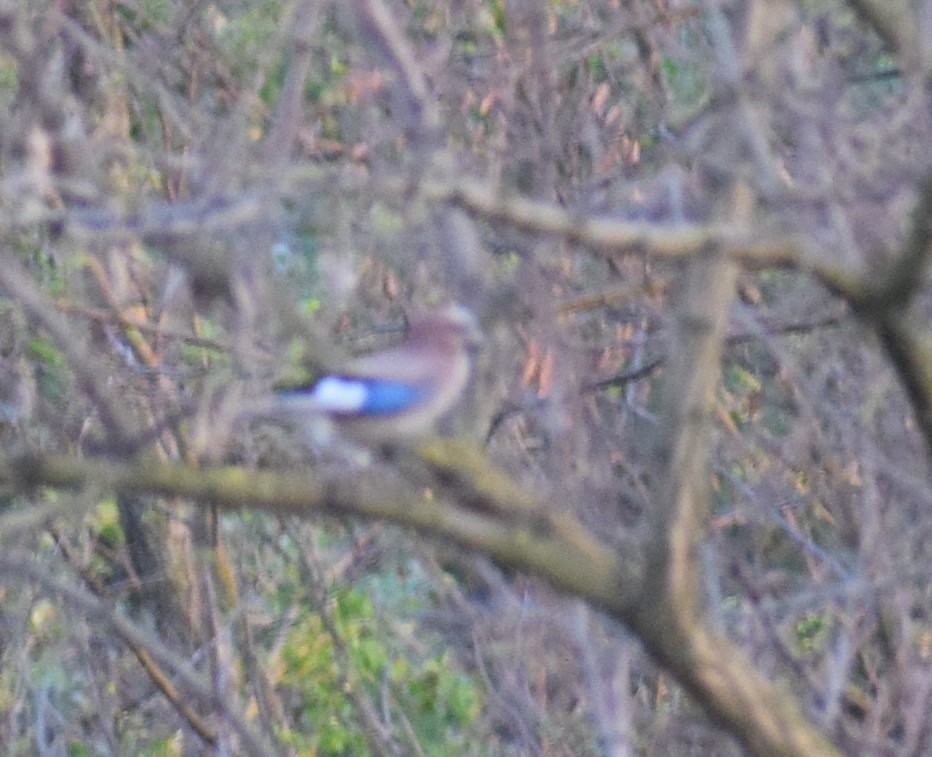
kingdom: Animalia
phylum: Chordata
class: Aves
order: Passeriformes
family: Corvidae
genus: Garrulus
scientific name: Garrulus glandarius
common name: Eurasian jay
